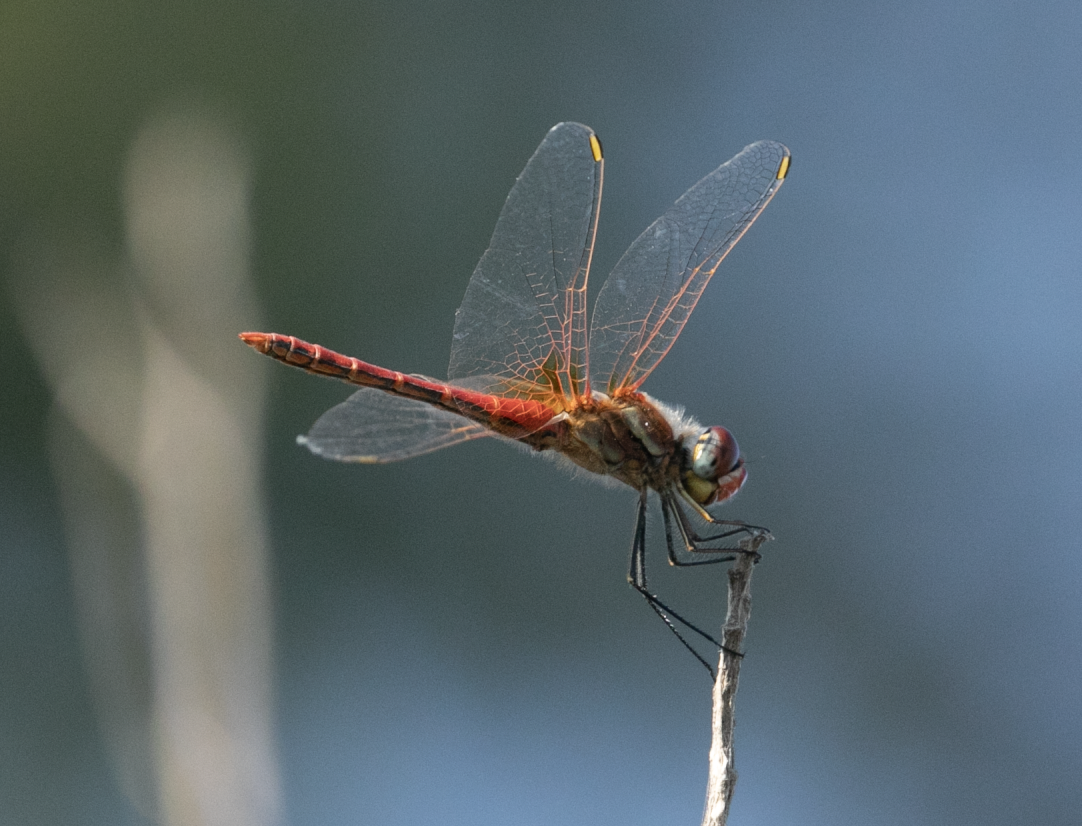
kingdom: Animalia
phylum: Arthropoda
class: Insecta
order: Odonata
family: Libellulidae
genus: Sympetrum
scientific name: Sympetrum fonscolombii
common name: Red-veined darter
